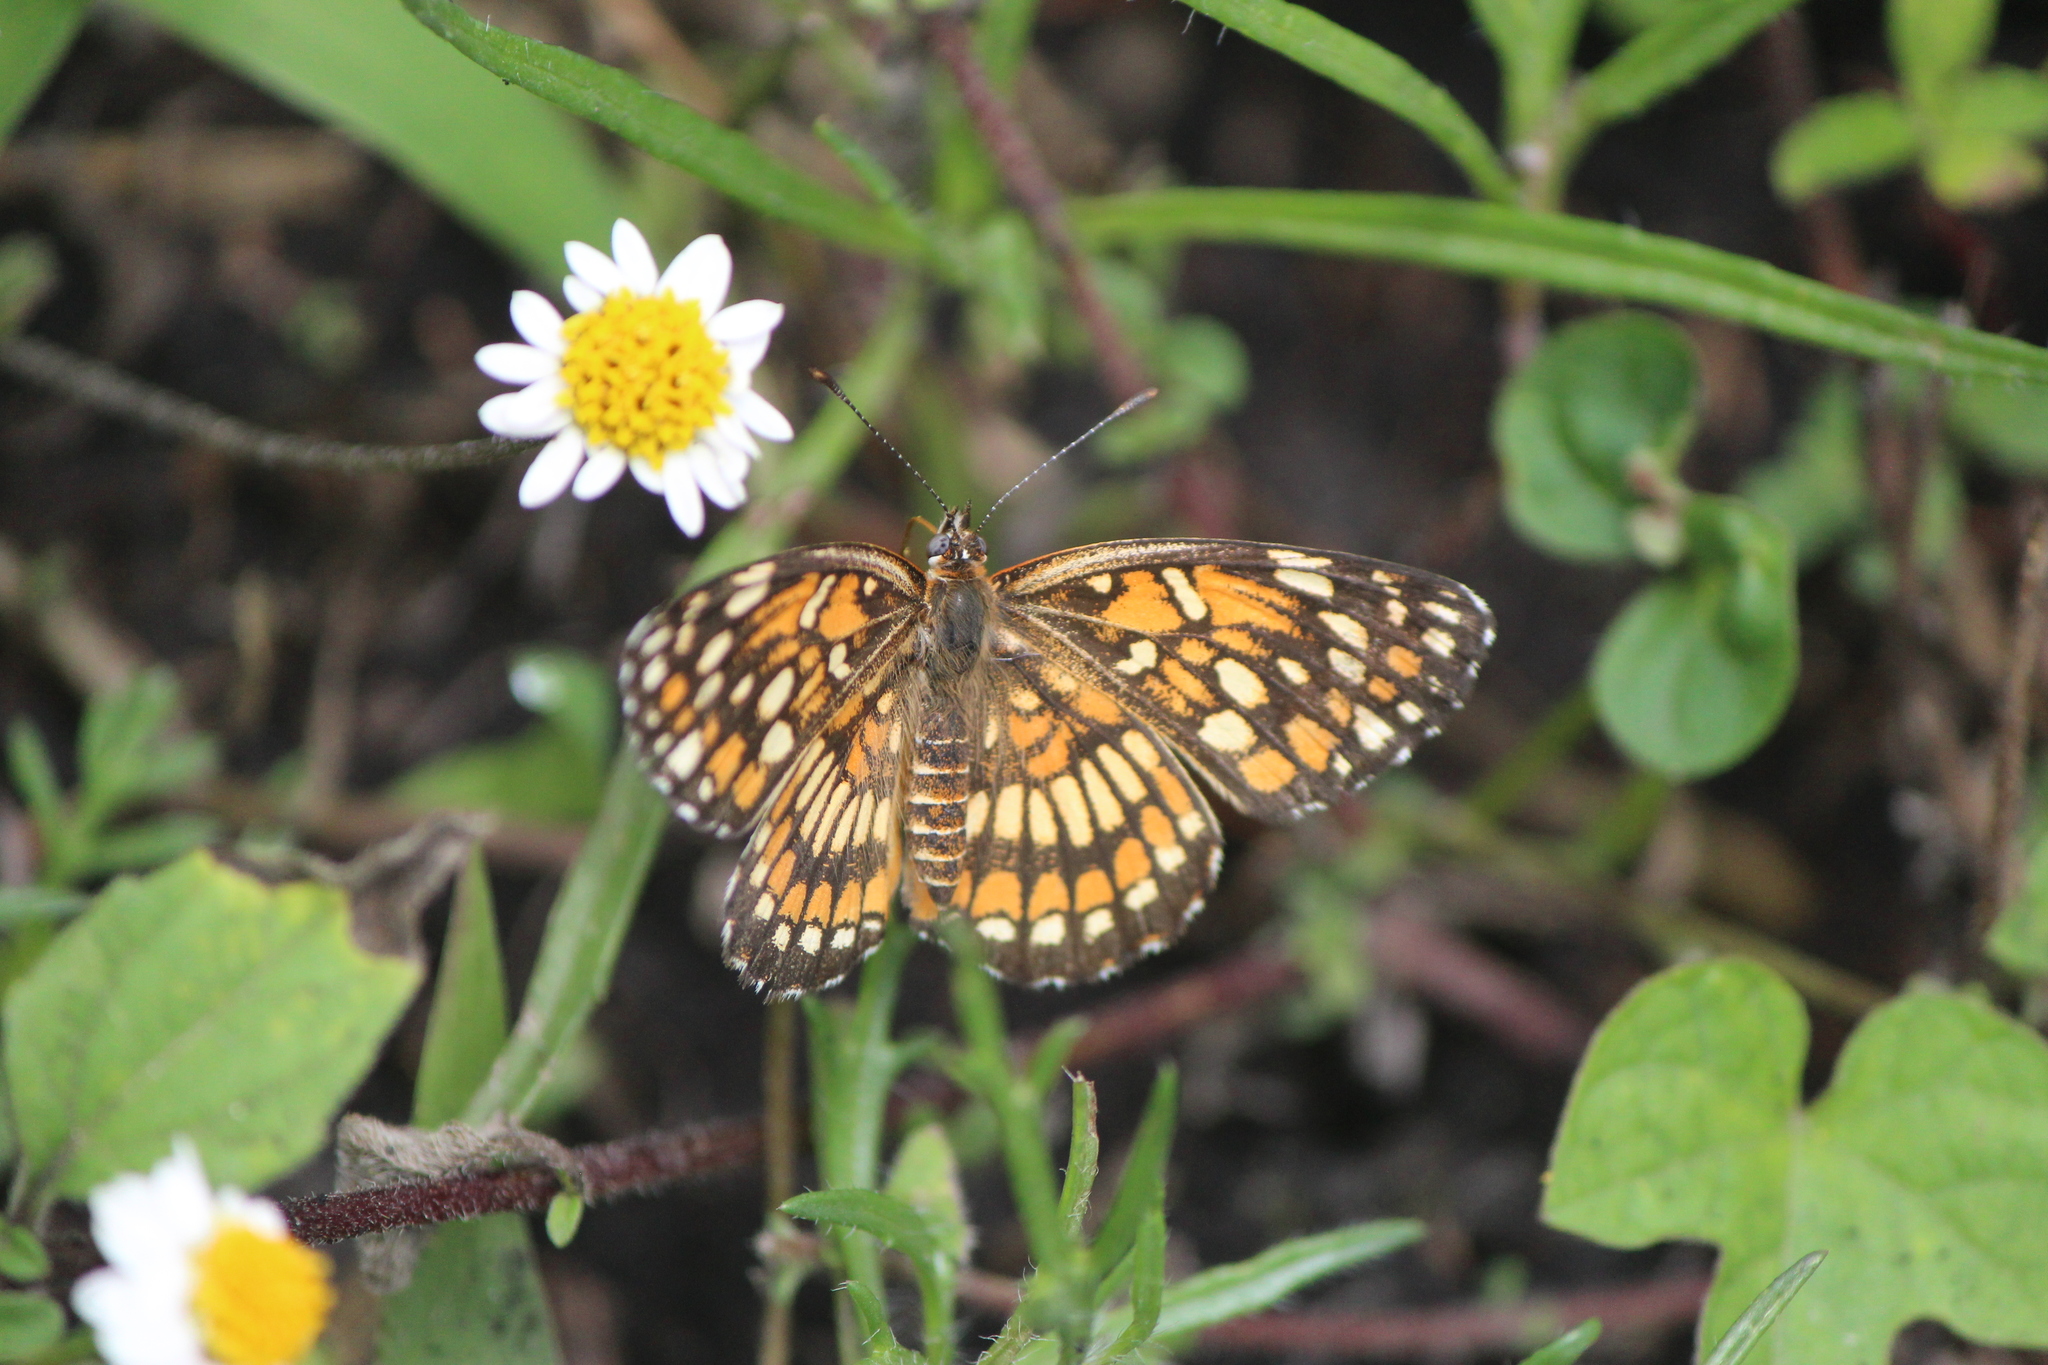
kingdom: Animalia
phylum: Arthropoda
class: Insecta
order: Lepidoptera
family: Nymphalidae
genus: Thessalia
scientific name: Thessalia theona
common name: Nymphalid moth
